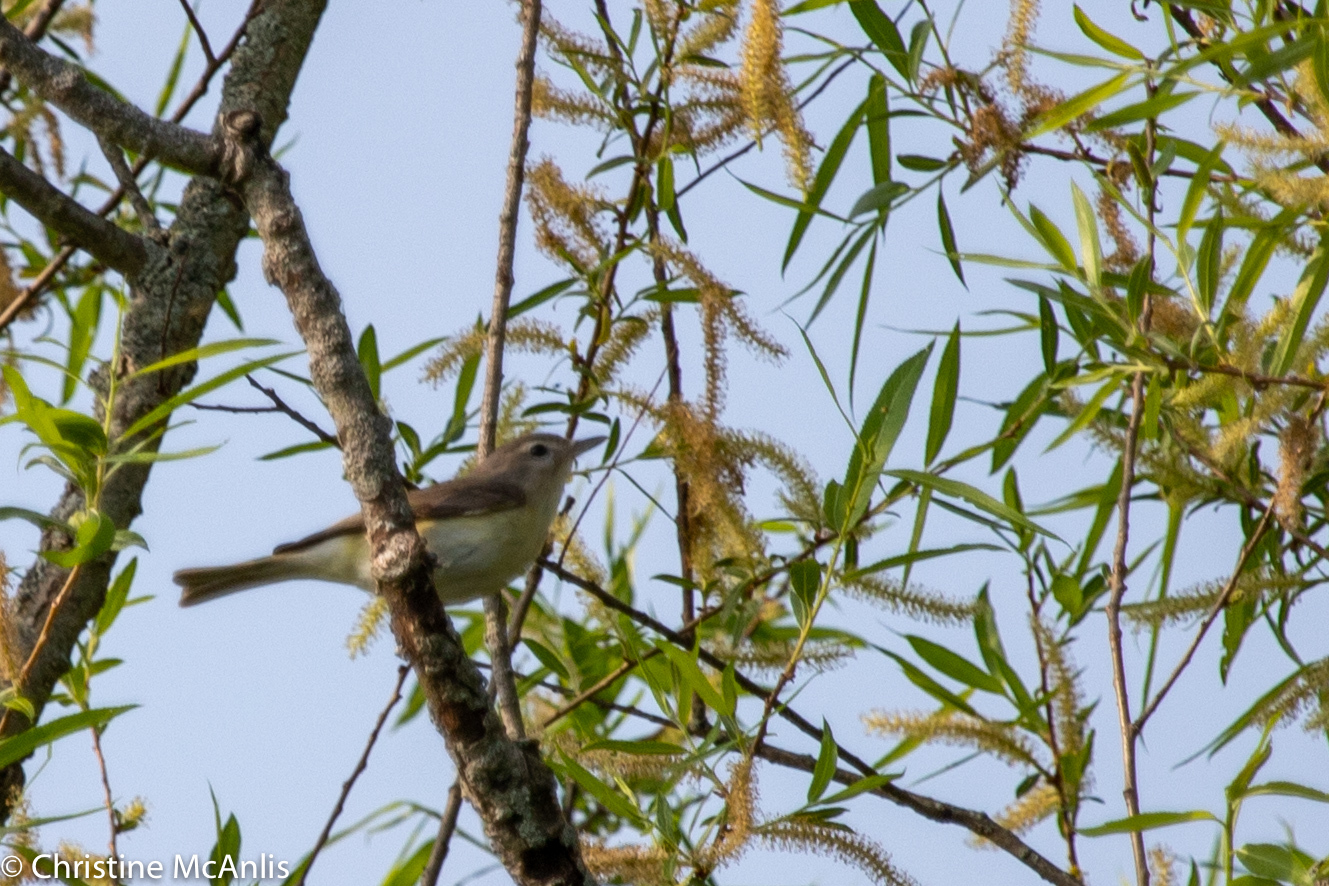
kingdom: Animalia
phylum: Chordata
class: Aves
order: Passeriformes
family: Vireonidae
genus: Vireo
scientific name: Vireo gilvus
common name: Warbling vireo
